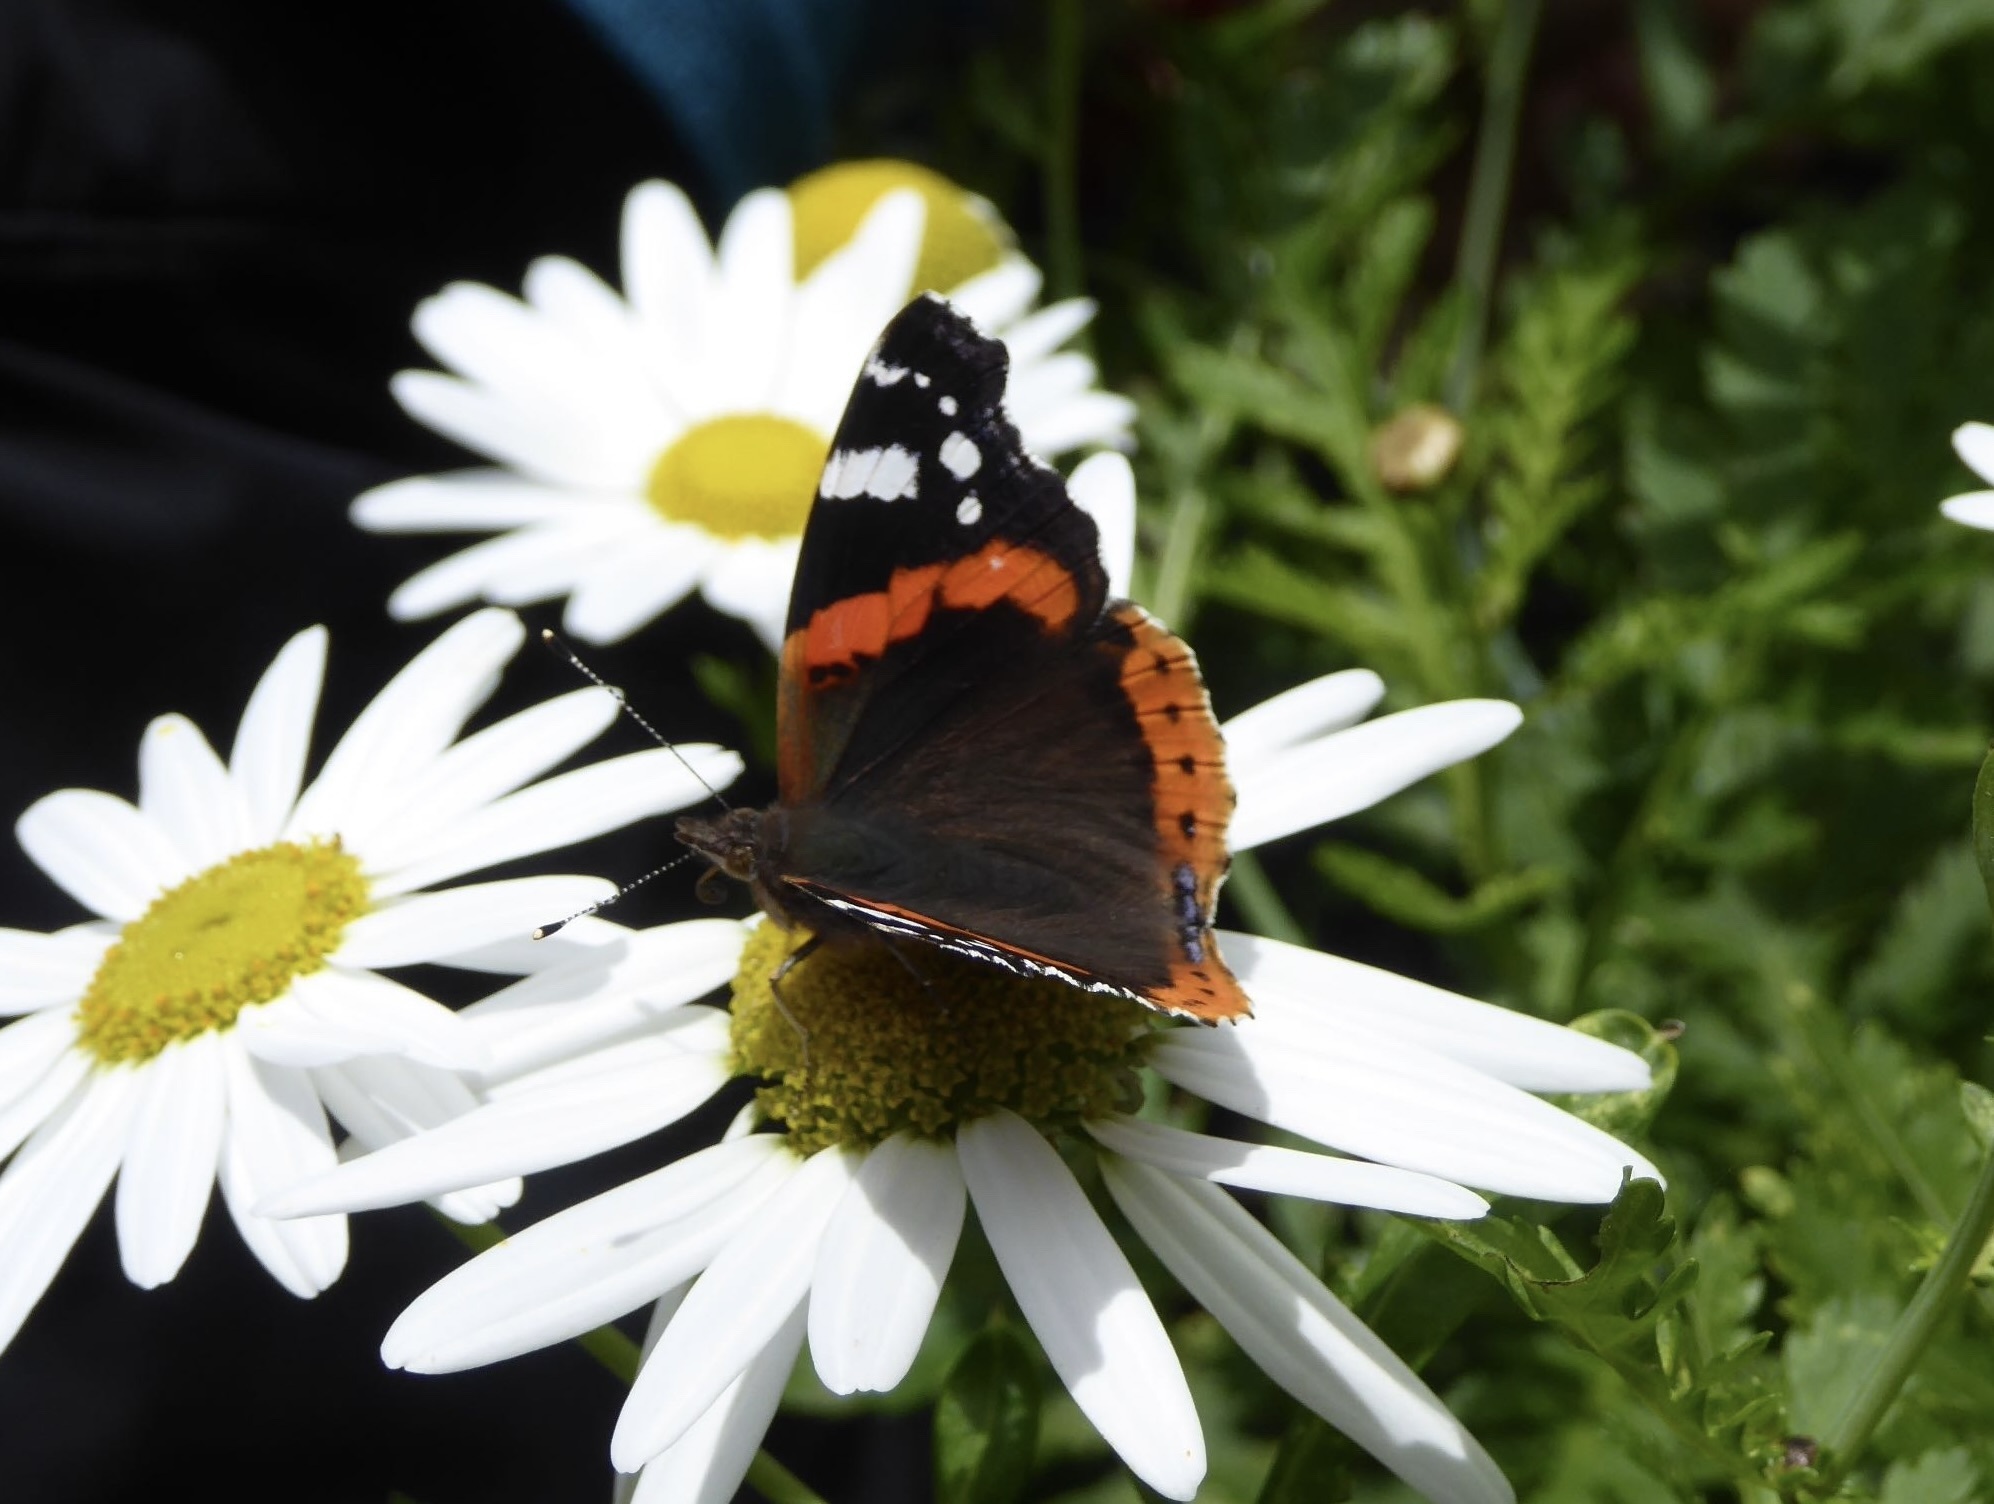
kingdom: Animalia
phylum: Arthropoda
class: Insecta
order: Lepidoptera
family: Nymphalidae
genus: Vanessa
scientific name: Vanessa atalanta
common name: Red admiral
